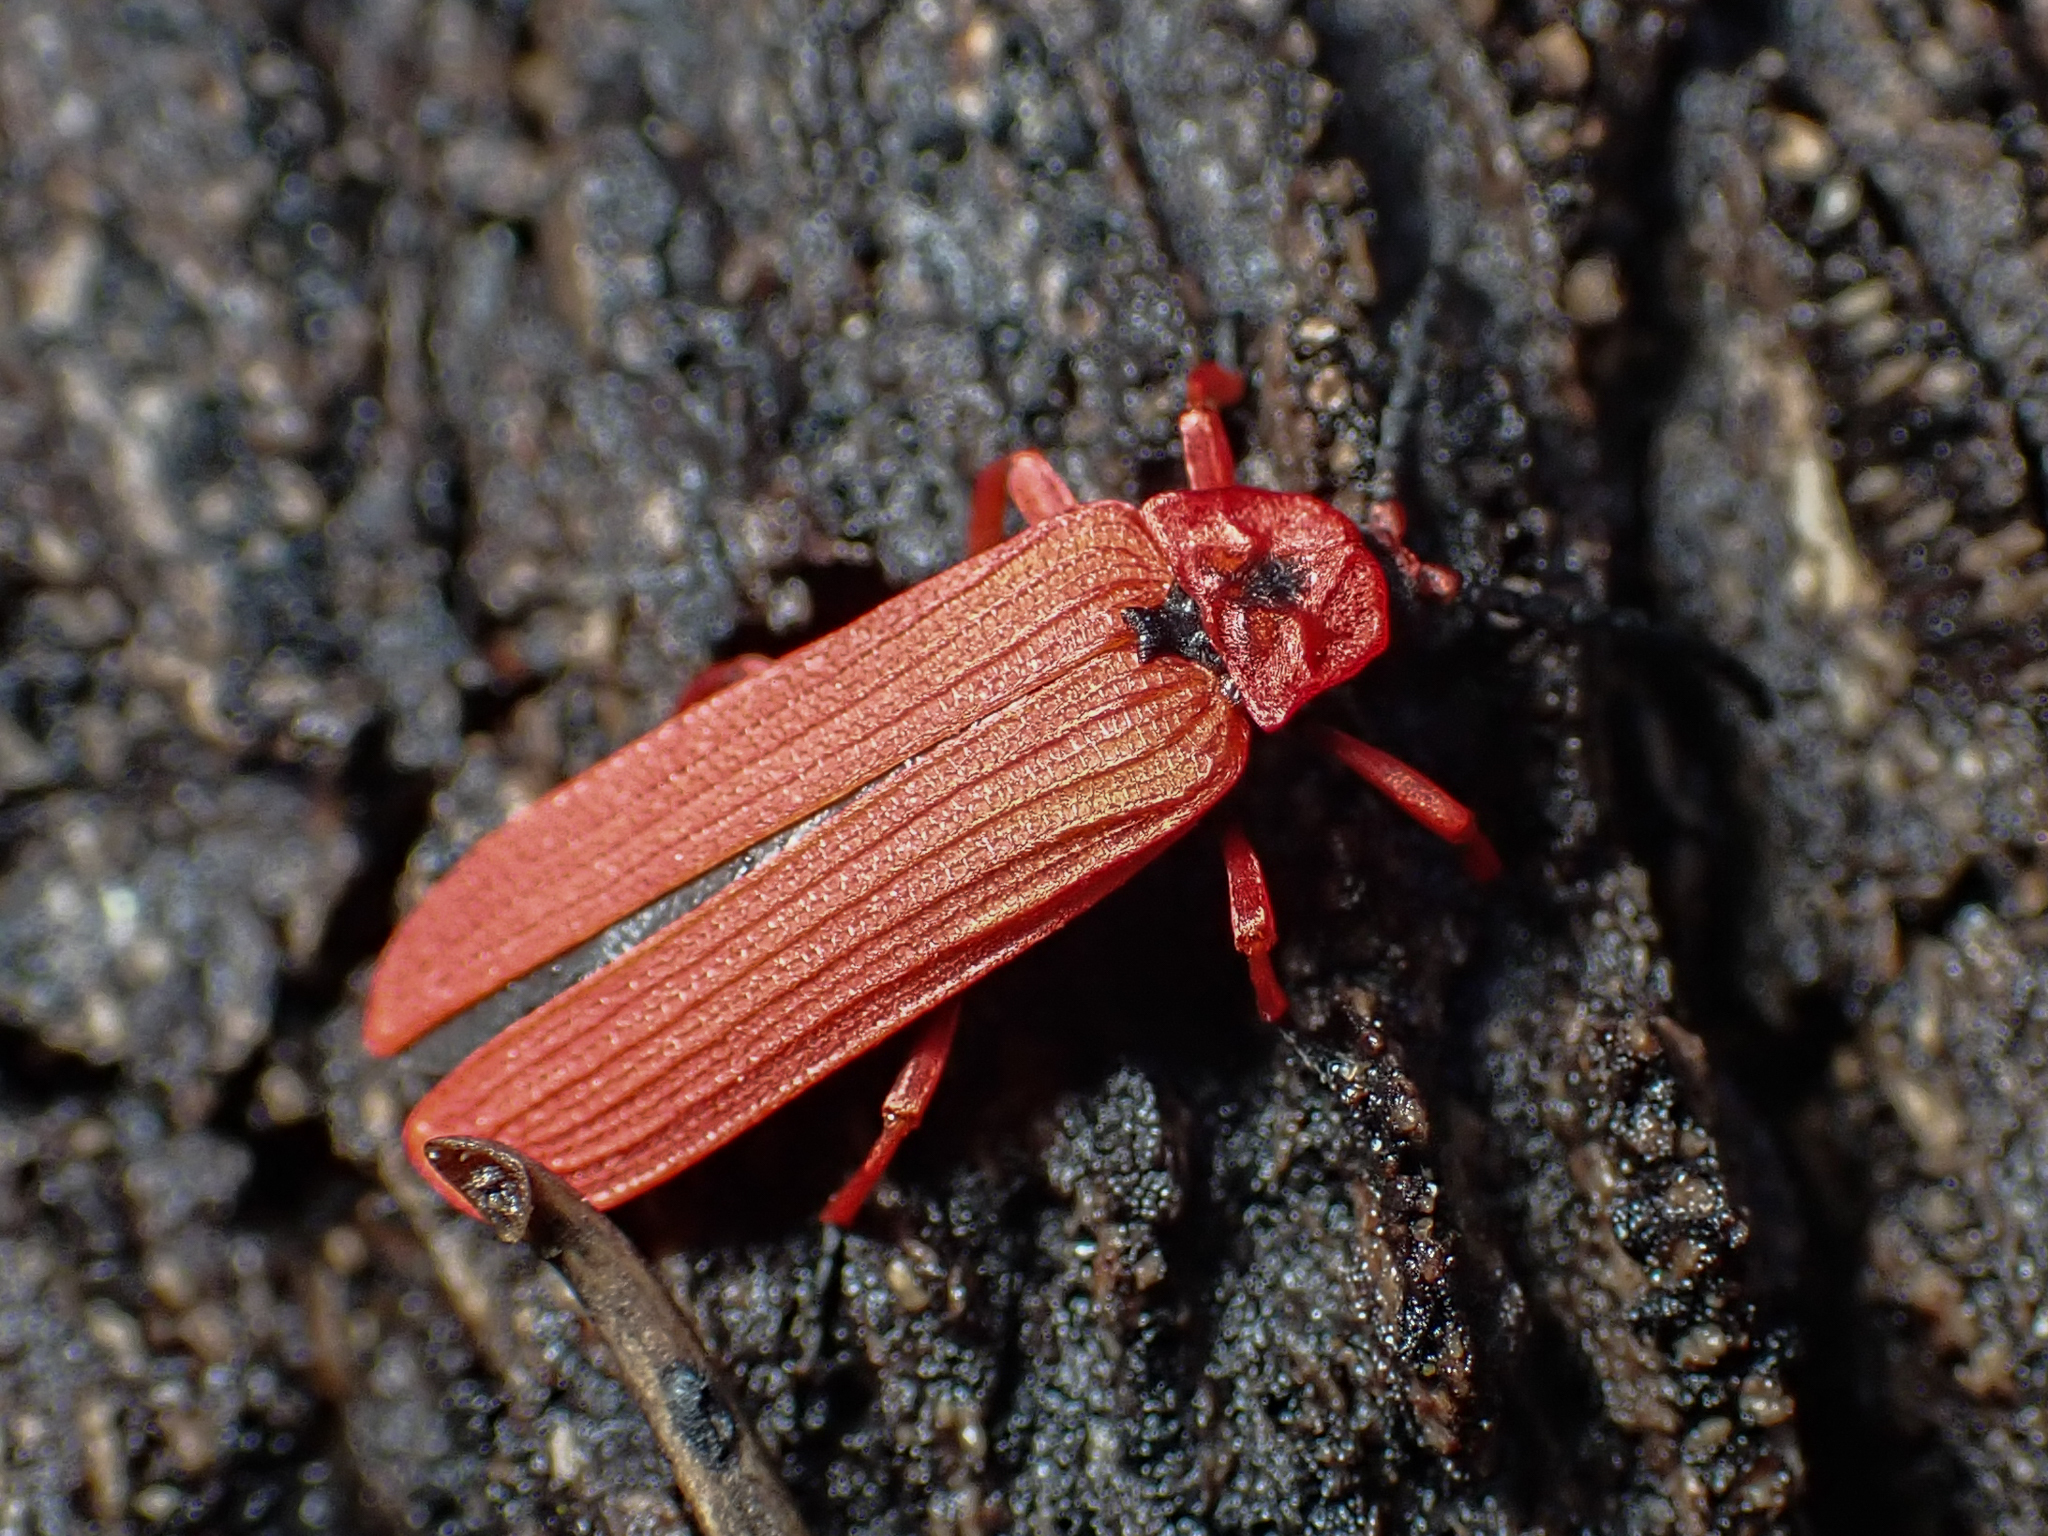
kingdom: Animalia
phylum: Arthropoda
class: Insecta
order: Coleoptera
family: Lycidae
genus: Dictyoptera
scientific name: Dictyoptera simplicipes
